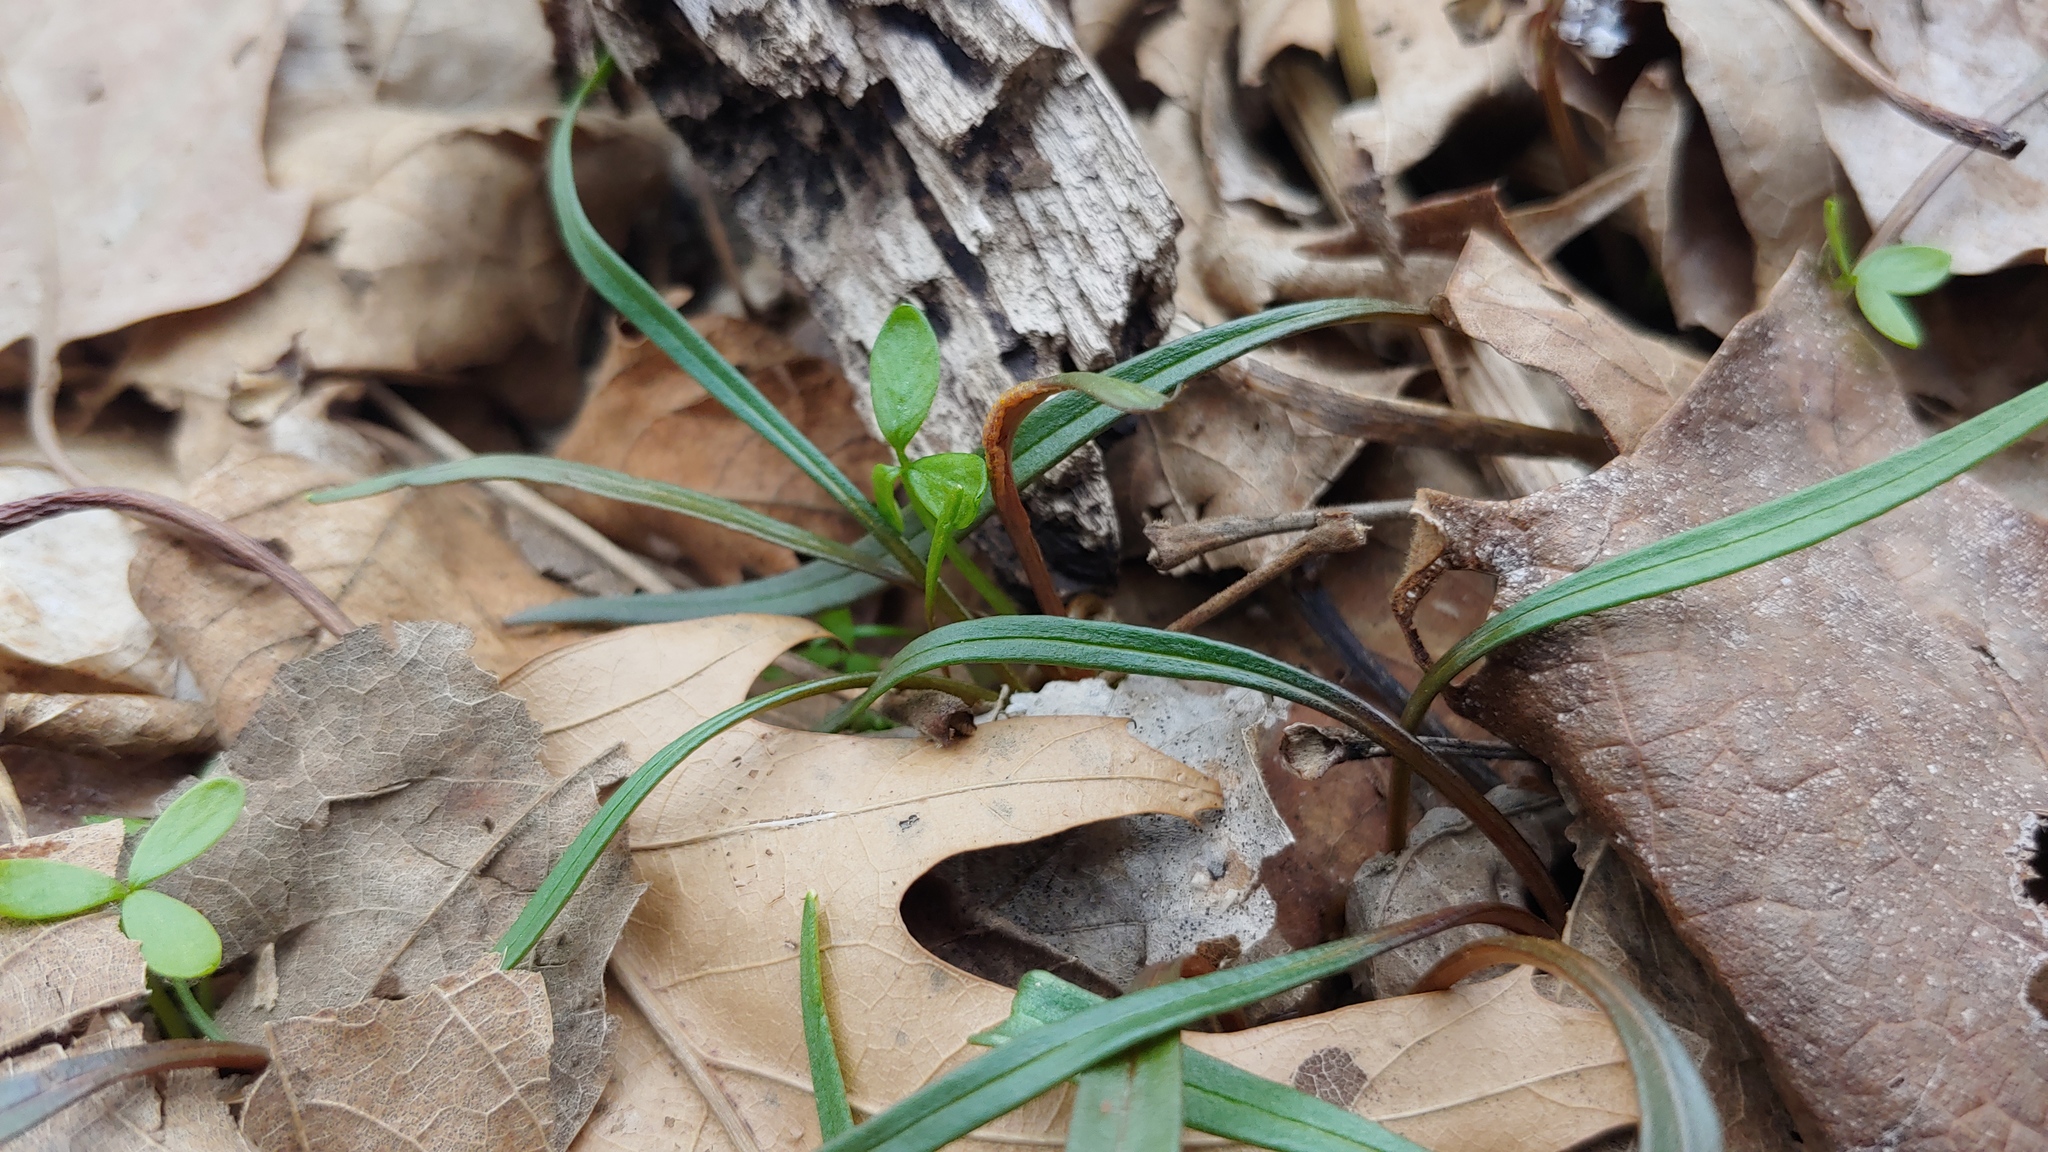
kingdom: Fungi
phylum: Basidiomycota
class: Pucciniomycetes
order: Pucciniales
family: Pucciniaceae
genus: Puccinia
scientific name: Puccinia mariae-wilsoniae
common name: Spring beauty rust
